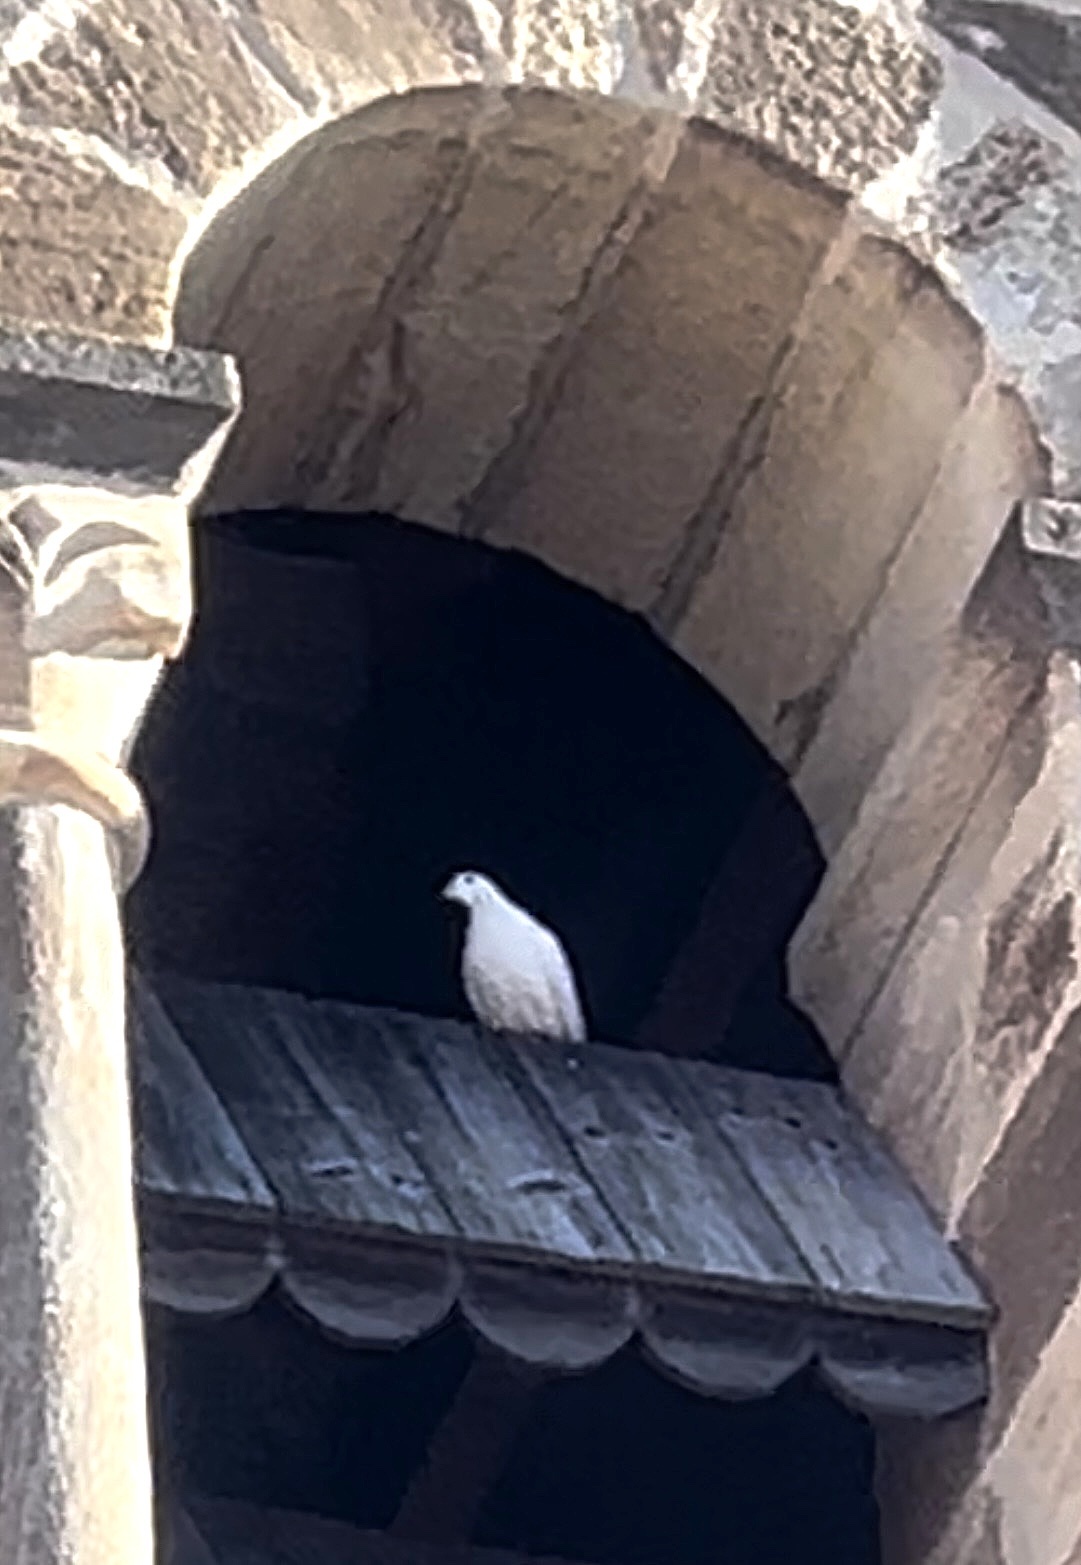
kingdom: Animalia
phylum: Chordata
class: Aves
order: Columbiformes
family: Columbidae
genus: Columba
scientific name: Columba livia
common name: Rock pigeon
